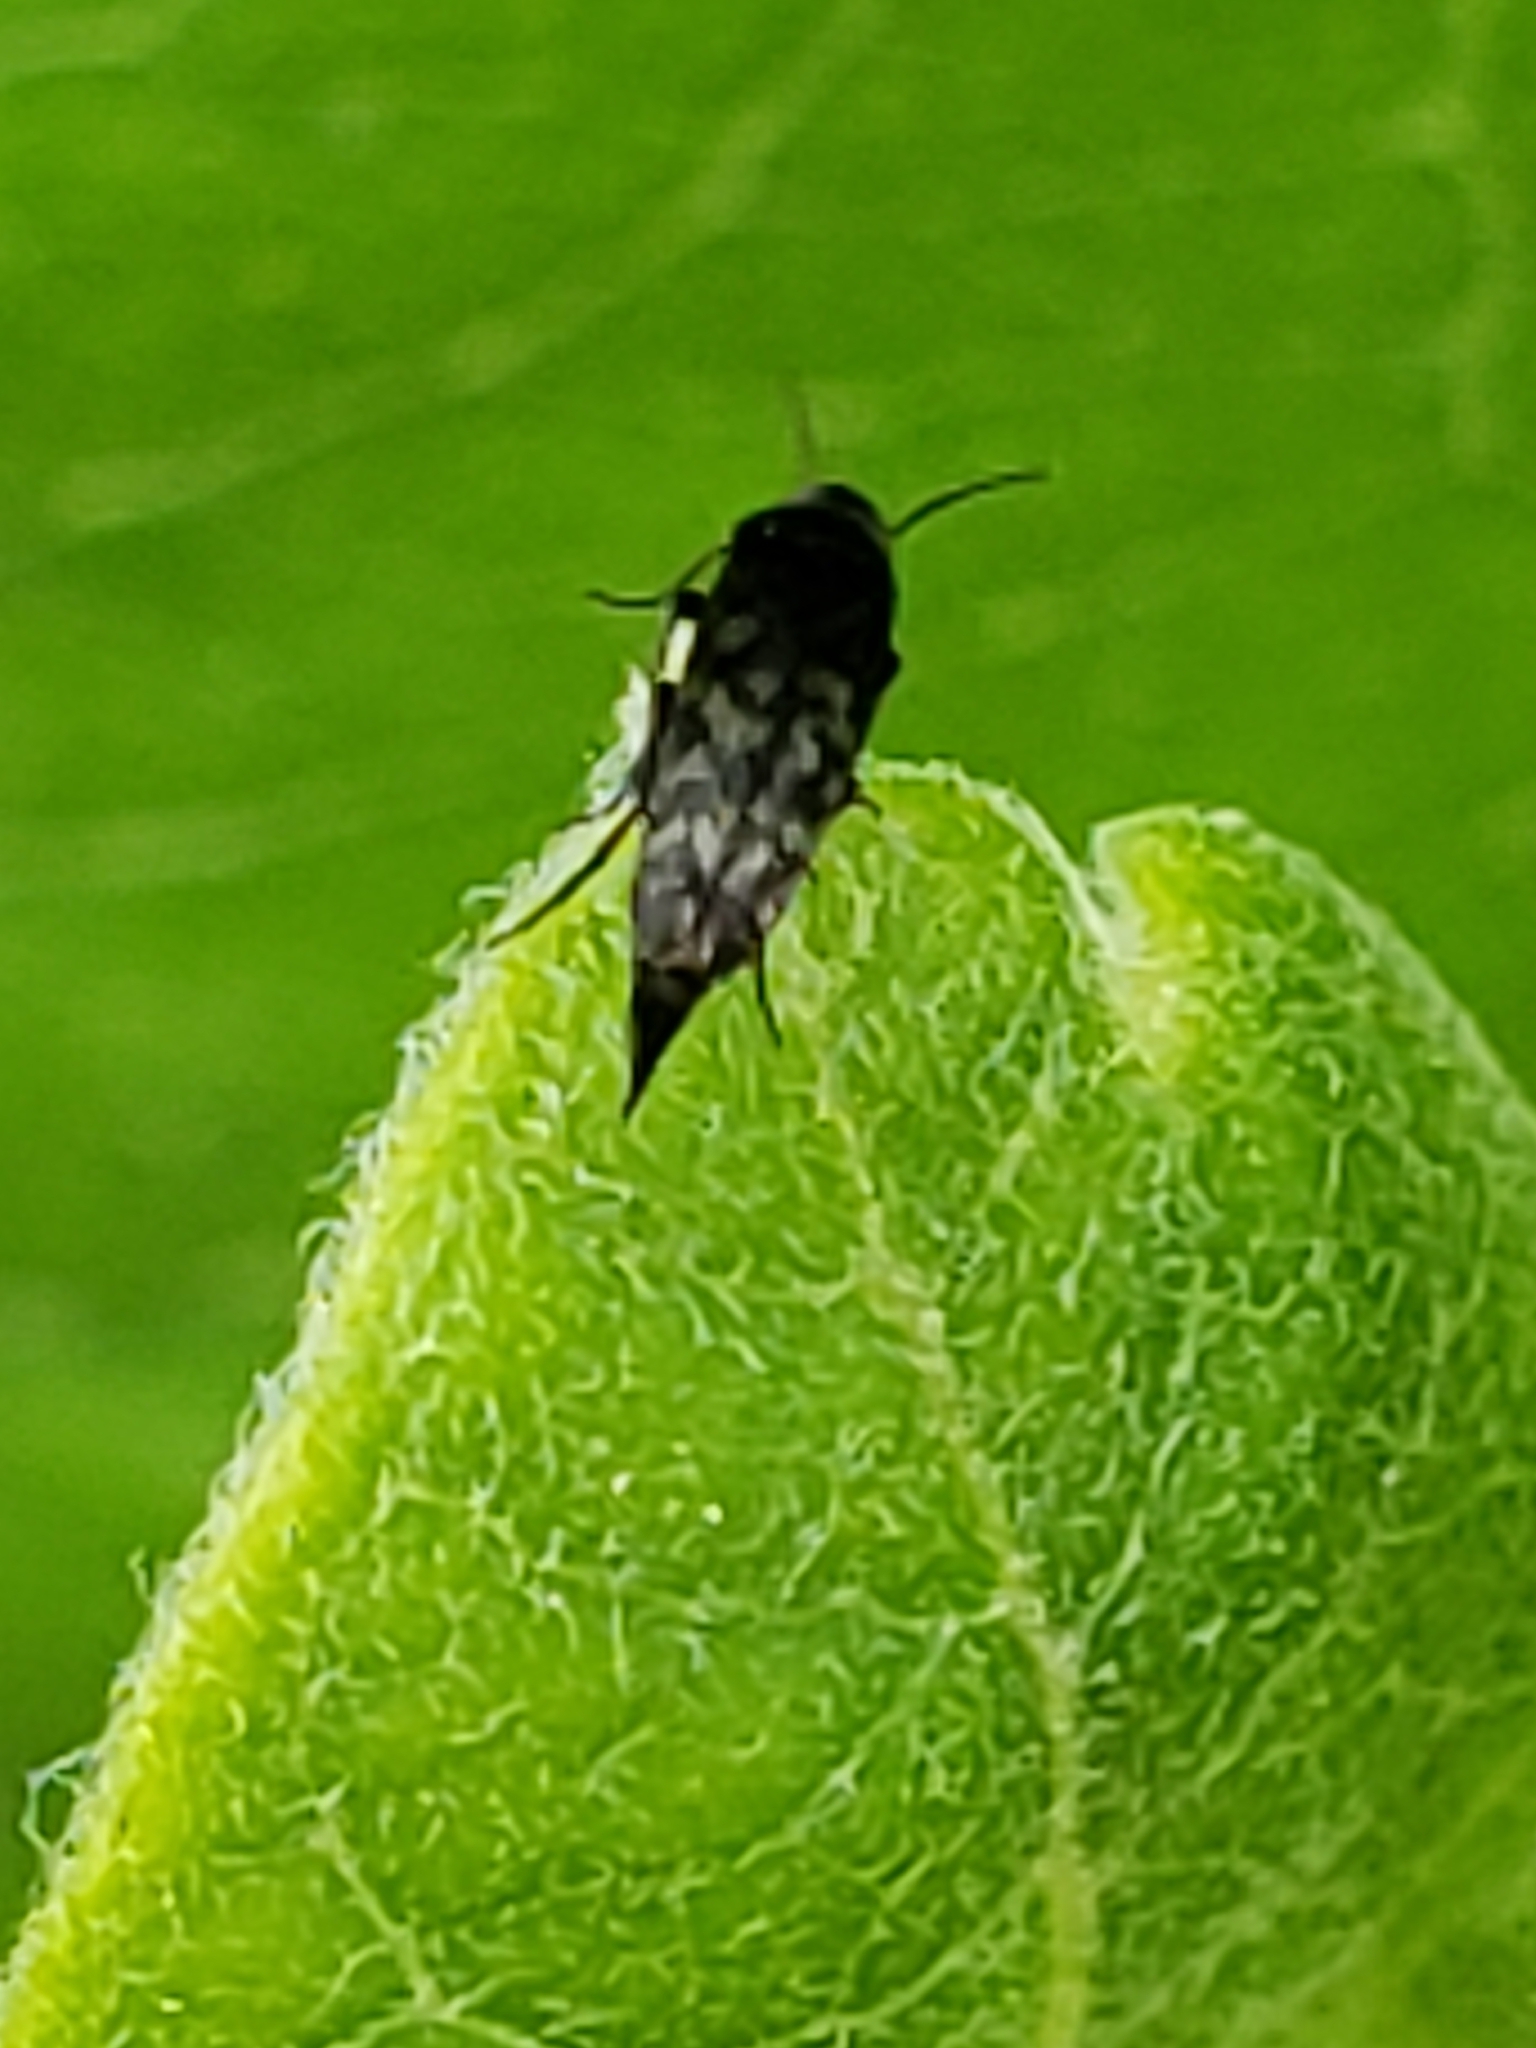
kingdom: Animalia
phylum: Arthropoda
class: Insecta
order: Coleoptera
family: Mordellidae
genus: Mordellina
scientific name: Mordellina pustulata
